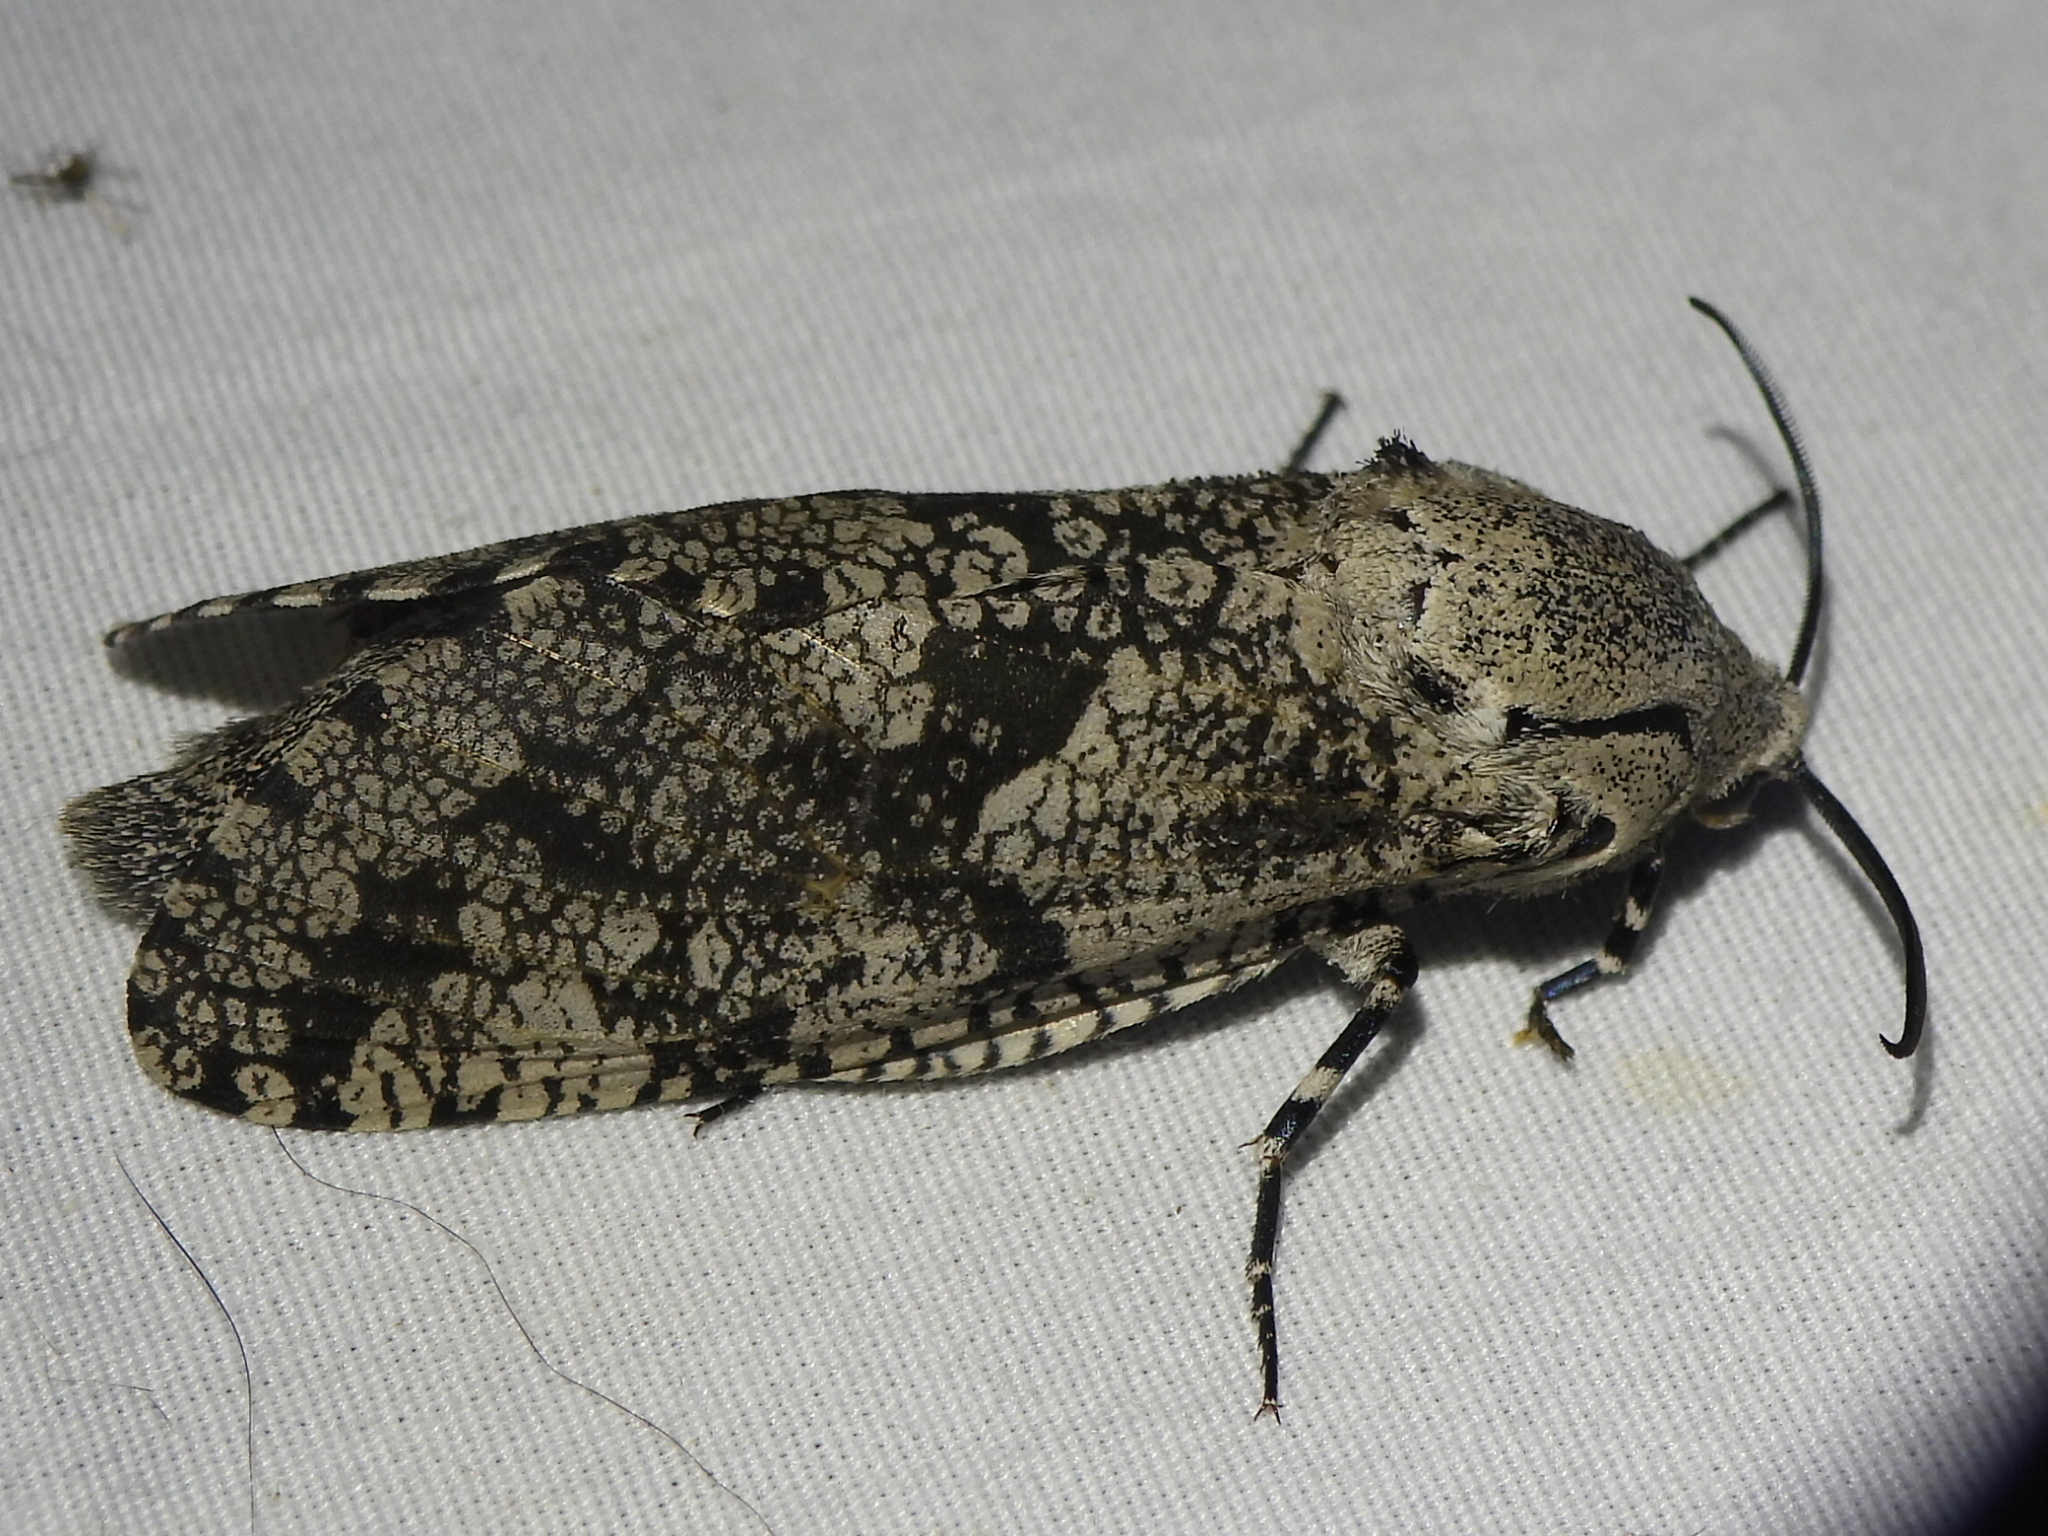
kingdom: Animalia
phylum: Arthropoda
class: Insecta
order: Lepidoptera
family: Cossidae
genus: Prionoxystus
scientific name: Prionoxystus robiniae
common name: Carpenterworm
